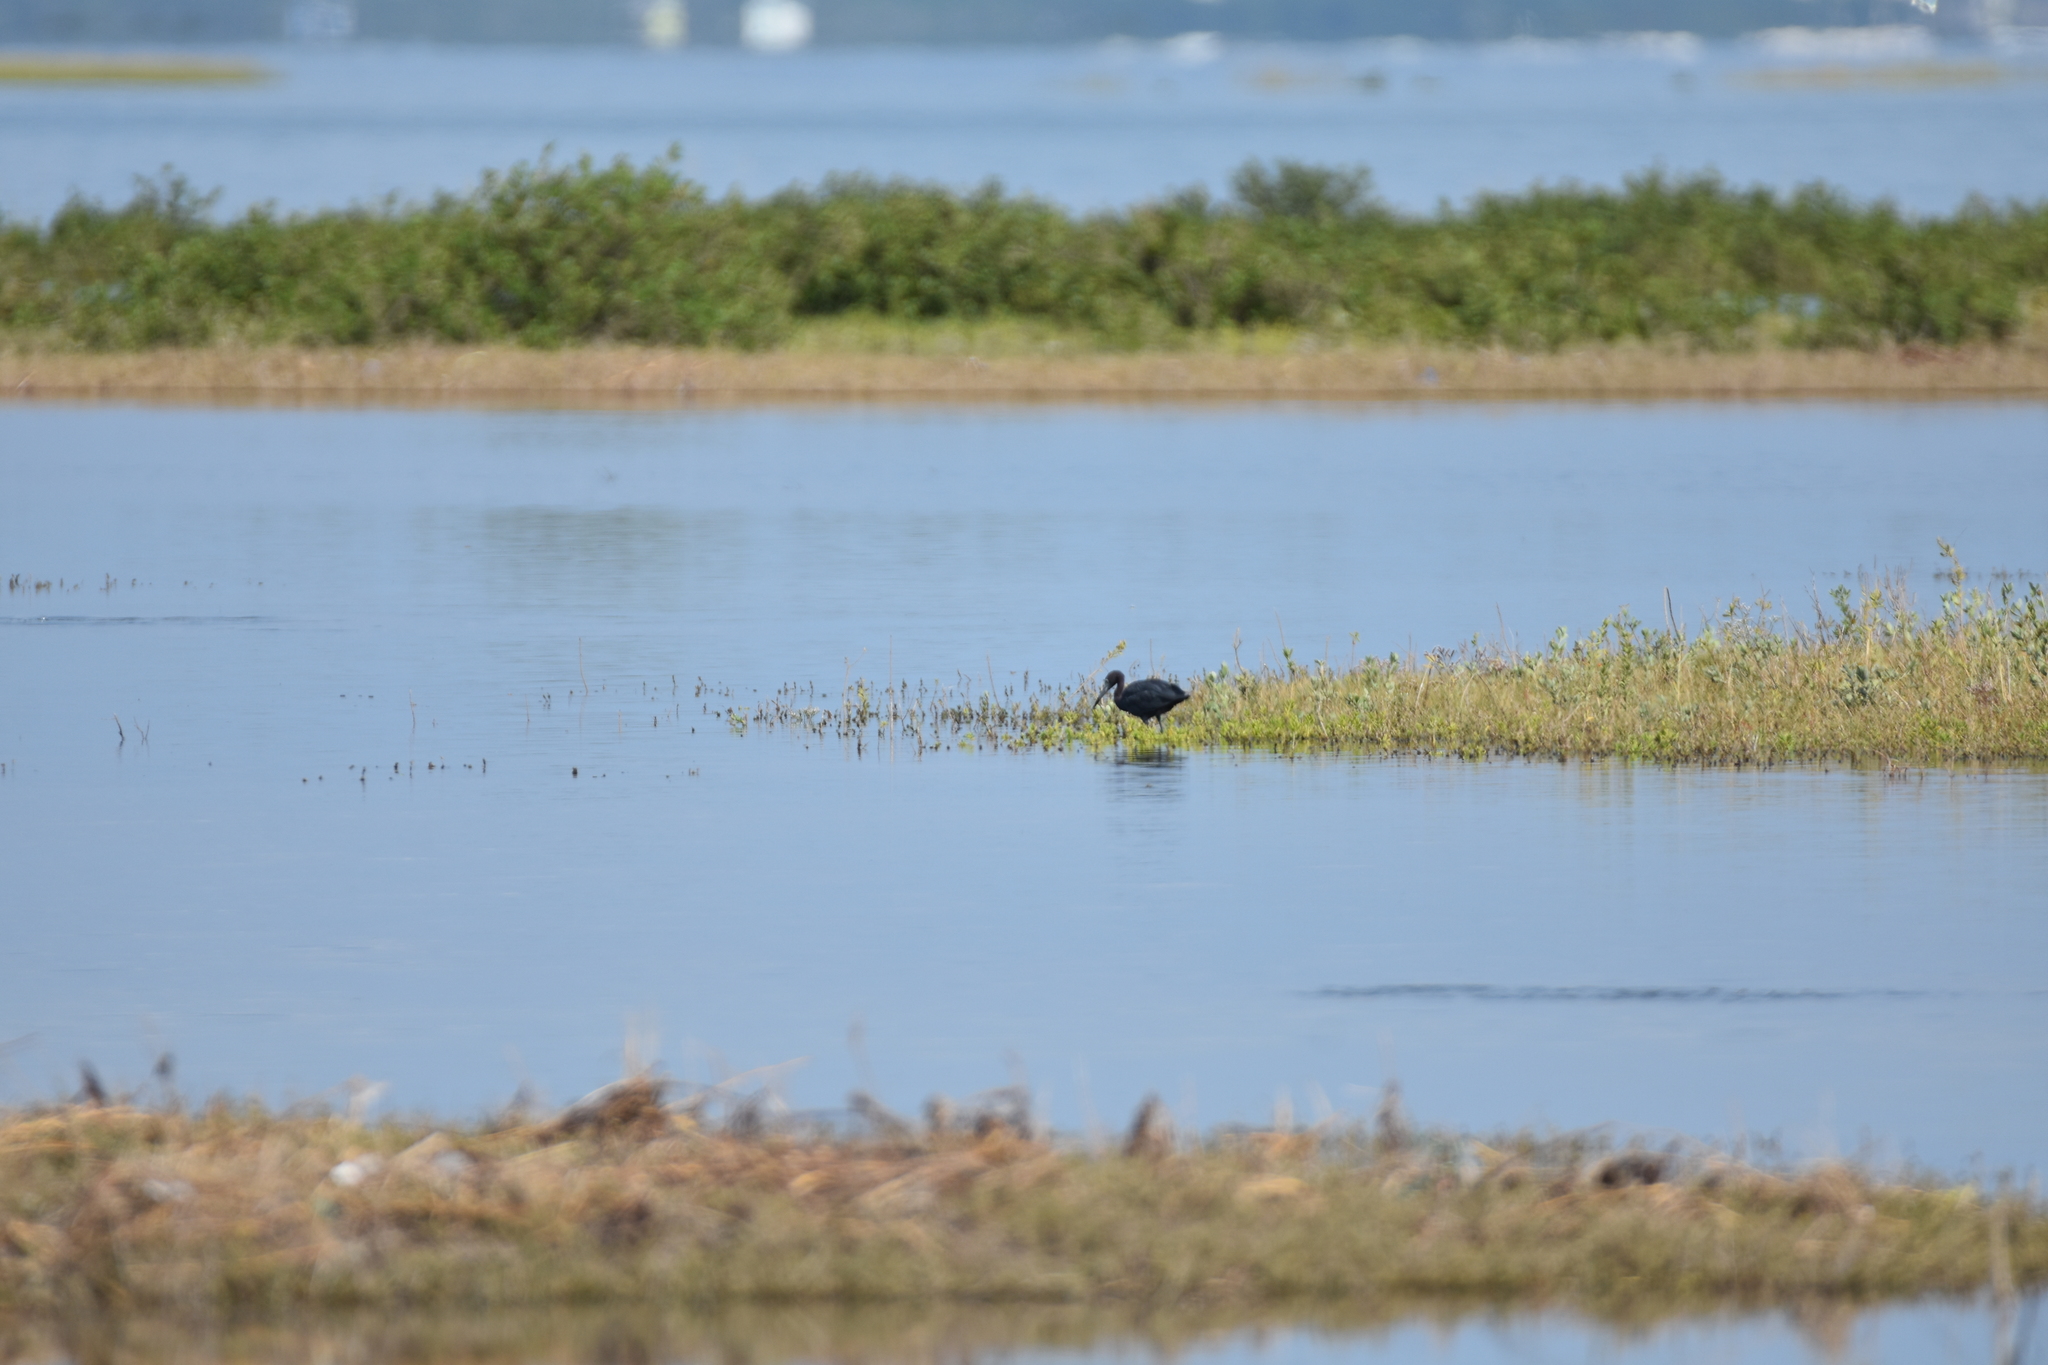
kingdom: Animalia
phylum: Chordata
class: Aves
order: Pelecaniformes
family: Ardeidae
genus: Egretta
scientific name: Egretta caerulea
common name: Little blue heron
